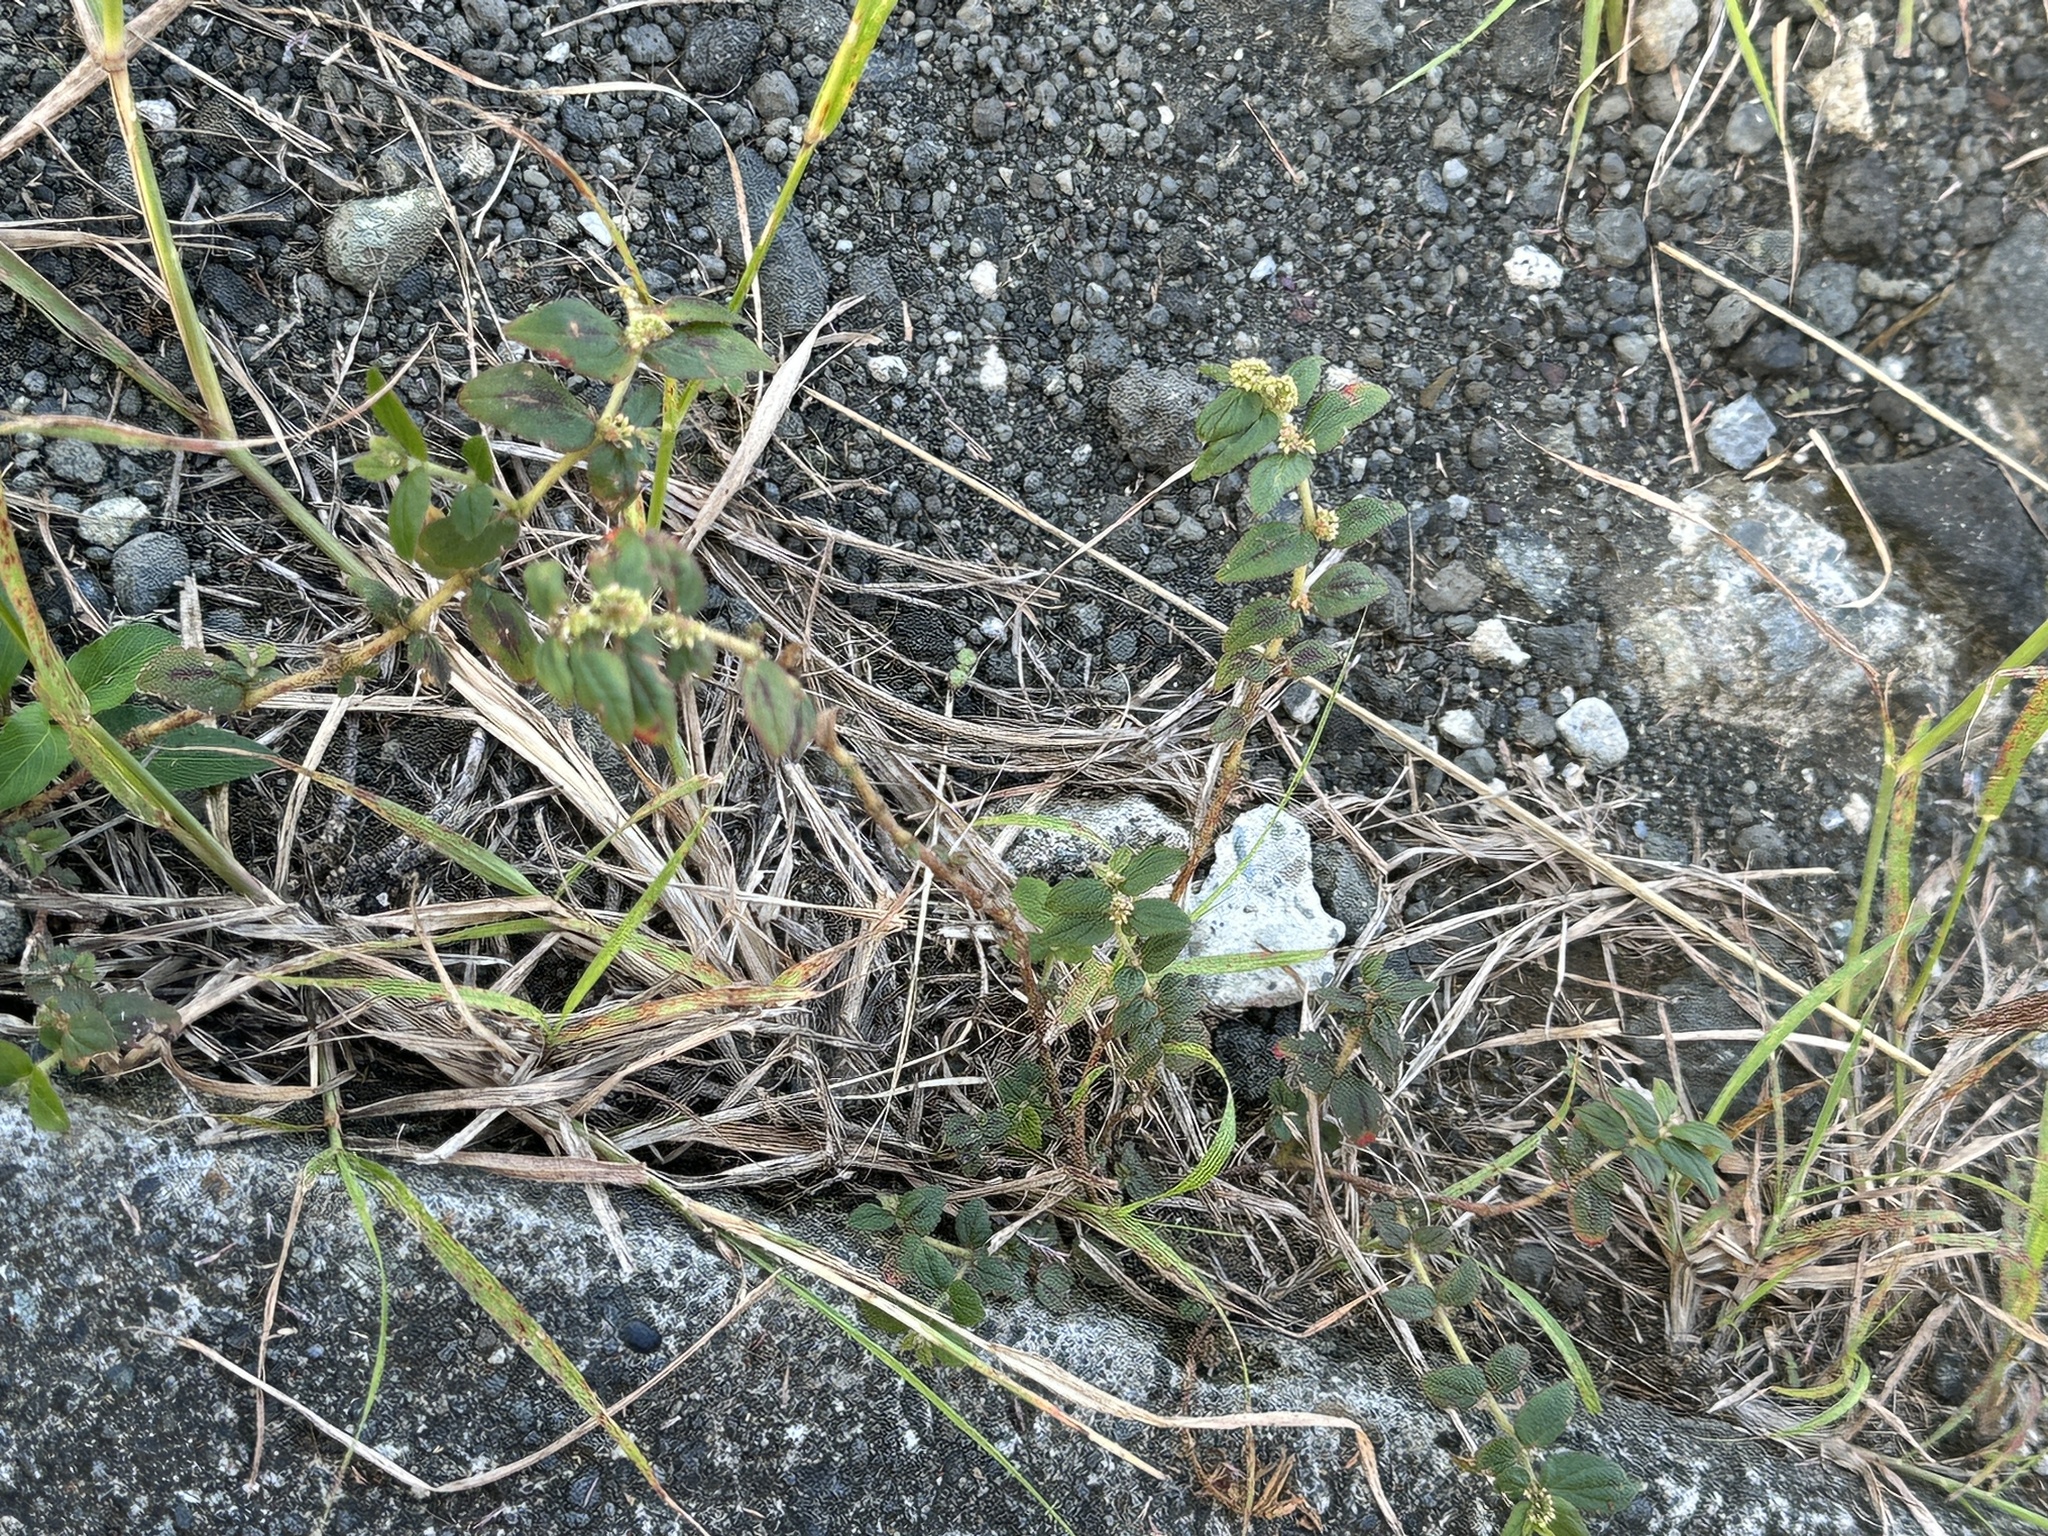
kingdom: Plantae
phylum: Tracheophyta
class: Magnoliopsida
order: Malpighiales
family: Euphorbiaceae
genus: Euphorbia
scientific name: Euphorbia hirta
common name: Pillpod sandmat
